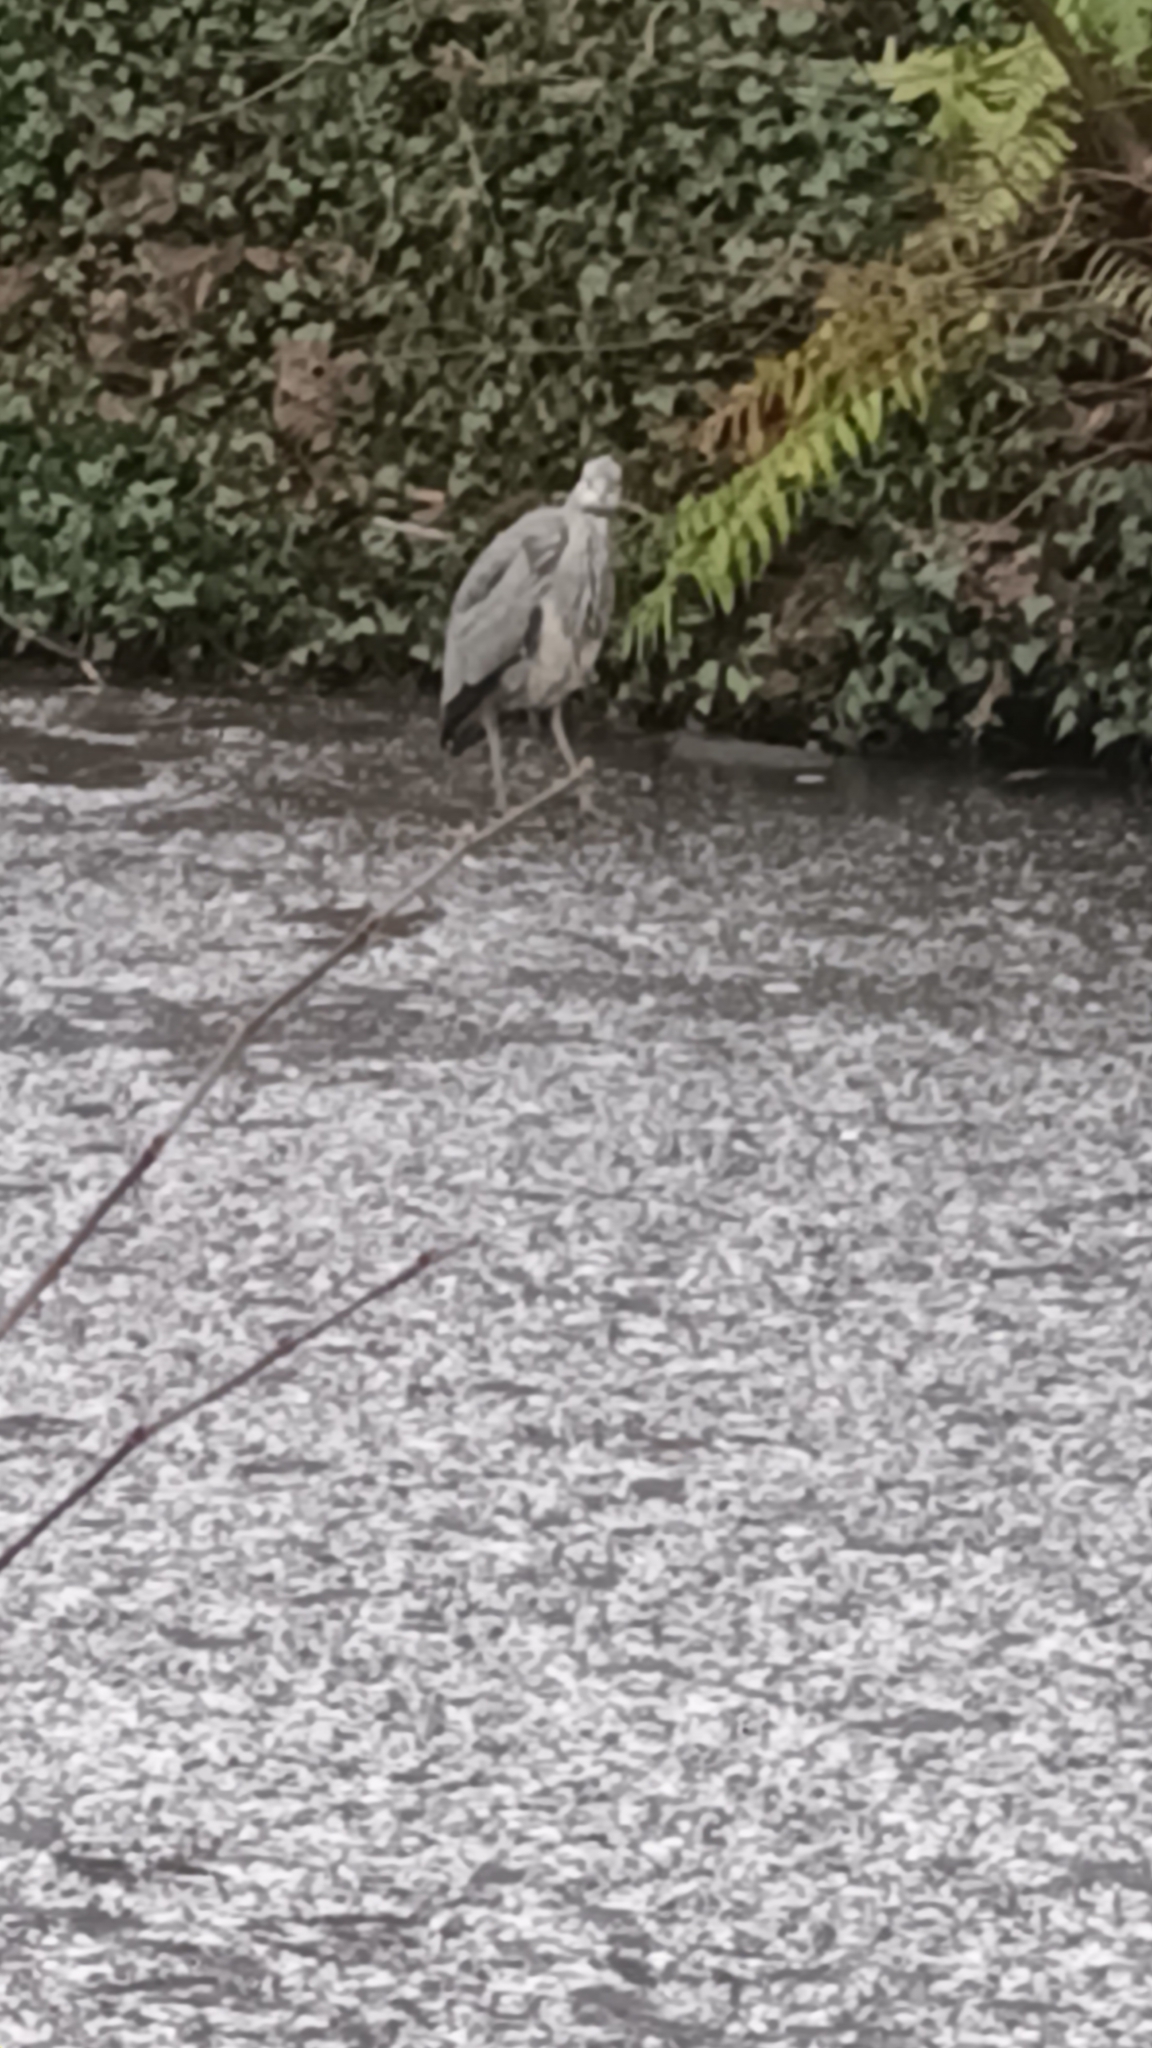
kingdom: Animalia
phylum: Chordata
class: Aves
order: Pelecaniformes
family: Ardeidae
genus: Ardea
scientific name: Ardea cinerea
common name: Grey heron
